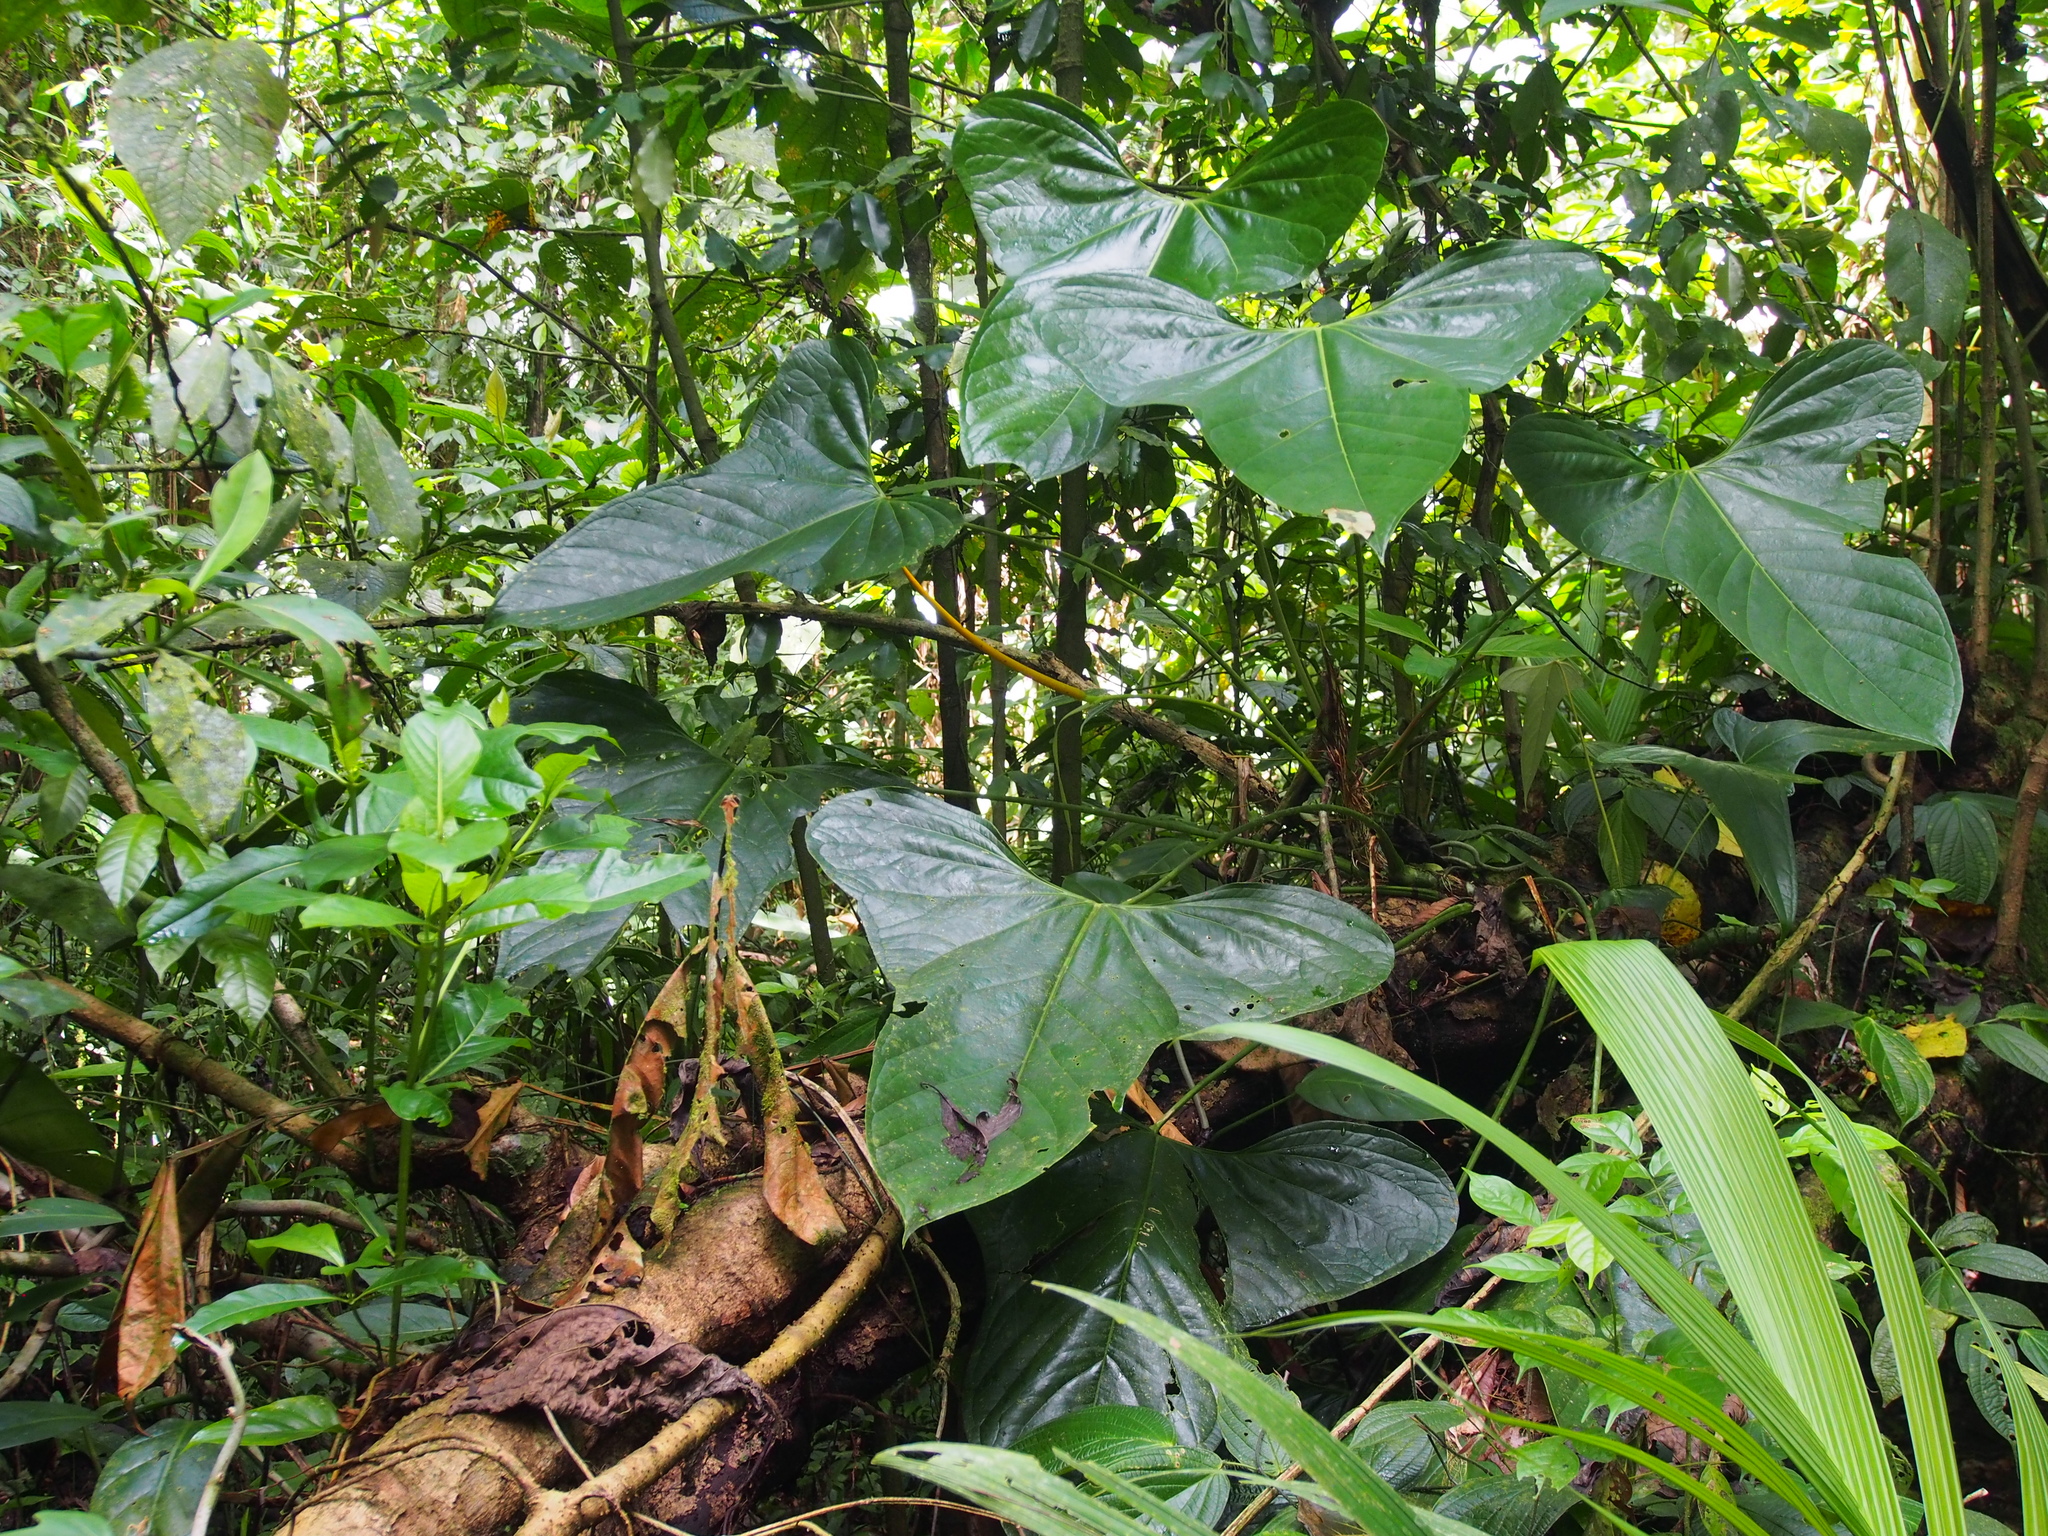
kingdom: Plantae
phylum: Tracheophyta
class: Liliopsida
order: Alismatales
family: Araceae
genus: Anthurium
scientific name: Anthurium subsignatum
